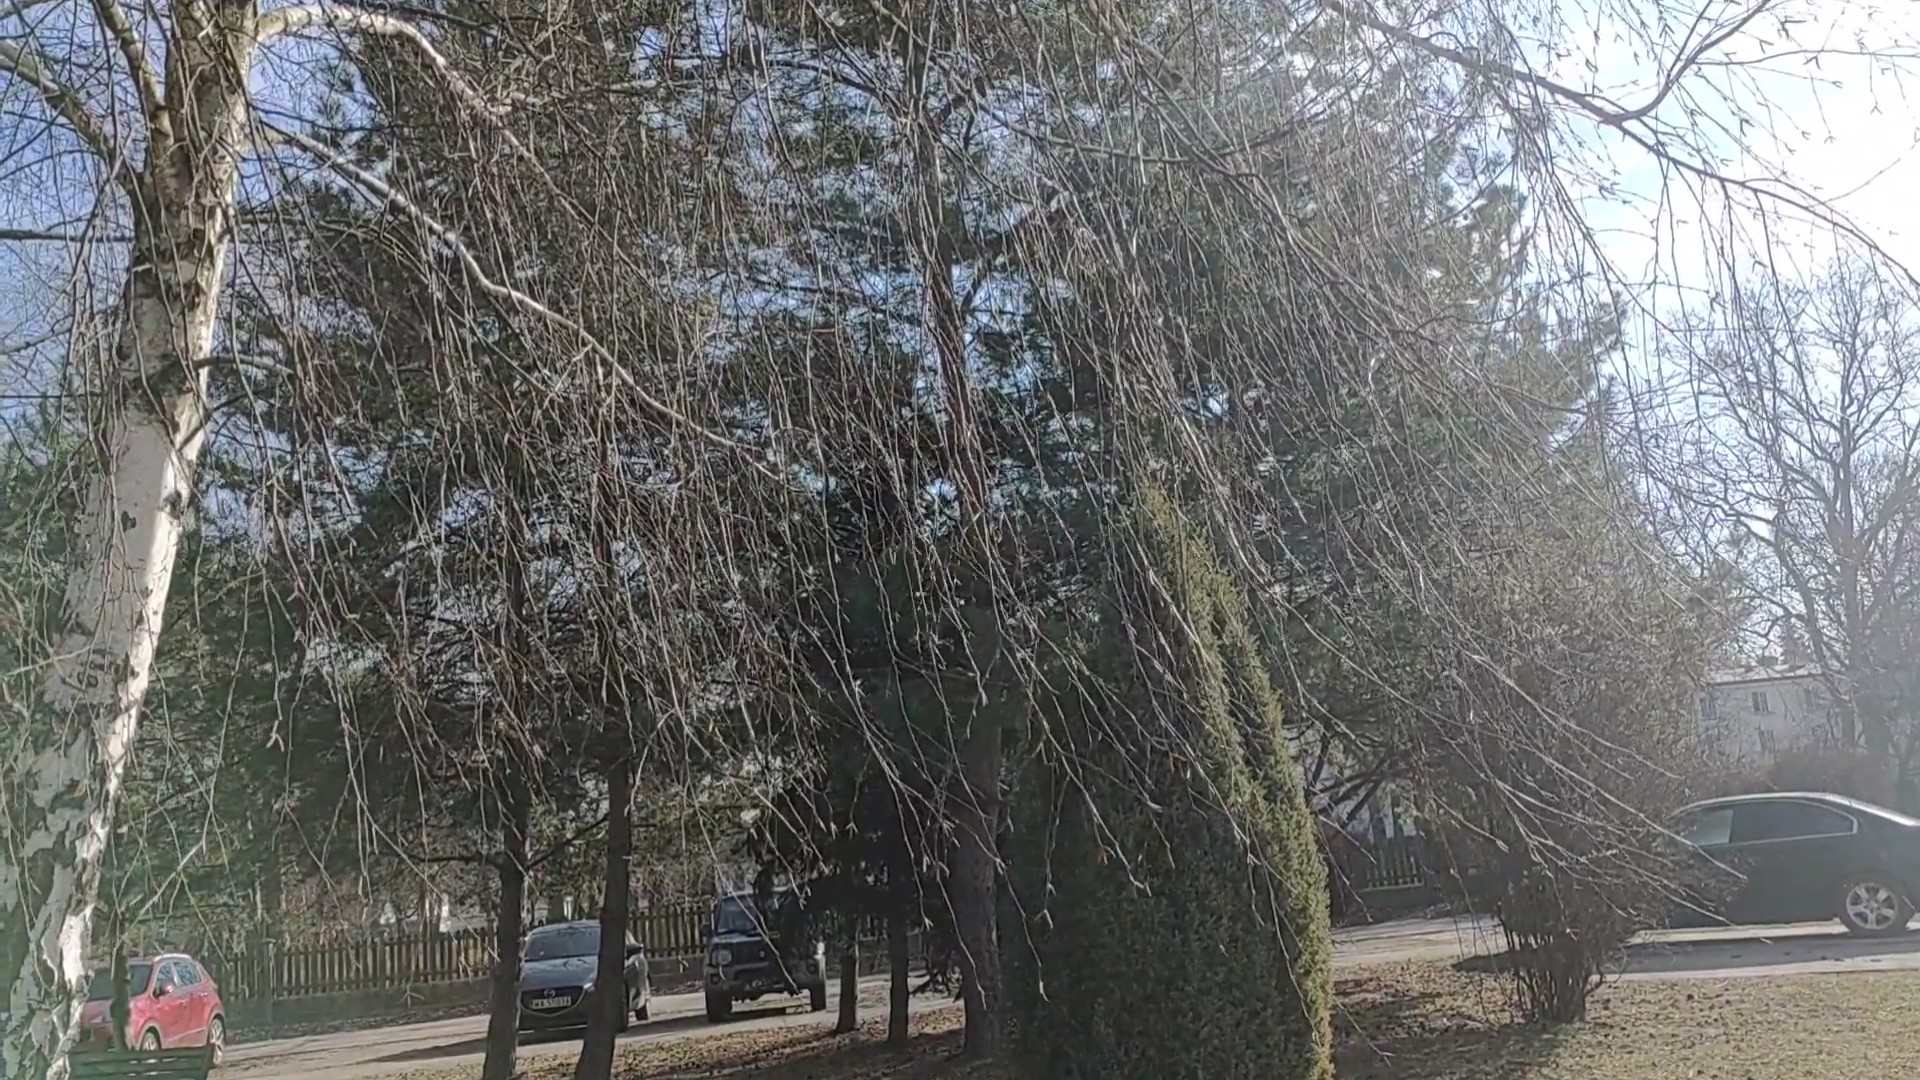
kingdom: Animalia
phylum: Chordata
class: Aves
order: Passeriformes
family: Paridae
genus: Cyanistes
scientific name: Cyanistes caeruleus
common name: Eurasian blue tit
